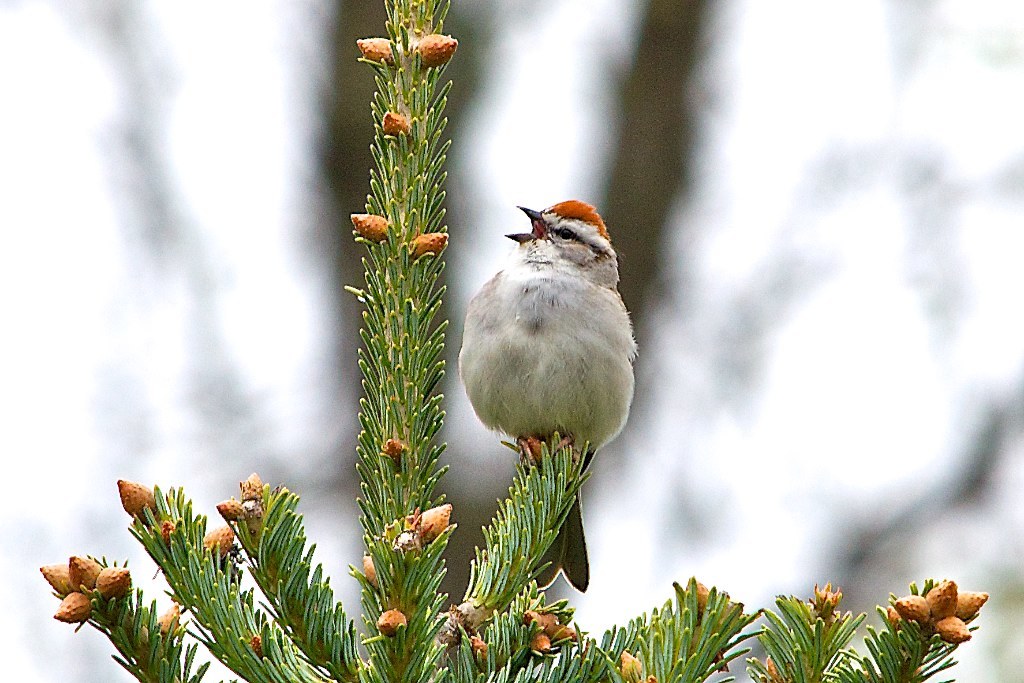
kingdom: Animalia
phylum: Chordata
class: Aves
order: Passeriformes
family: Passerellidae
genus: Spizella
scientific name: Spizella passerina
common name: Chipping sparrow
